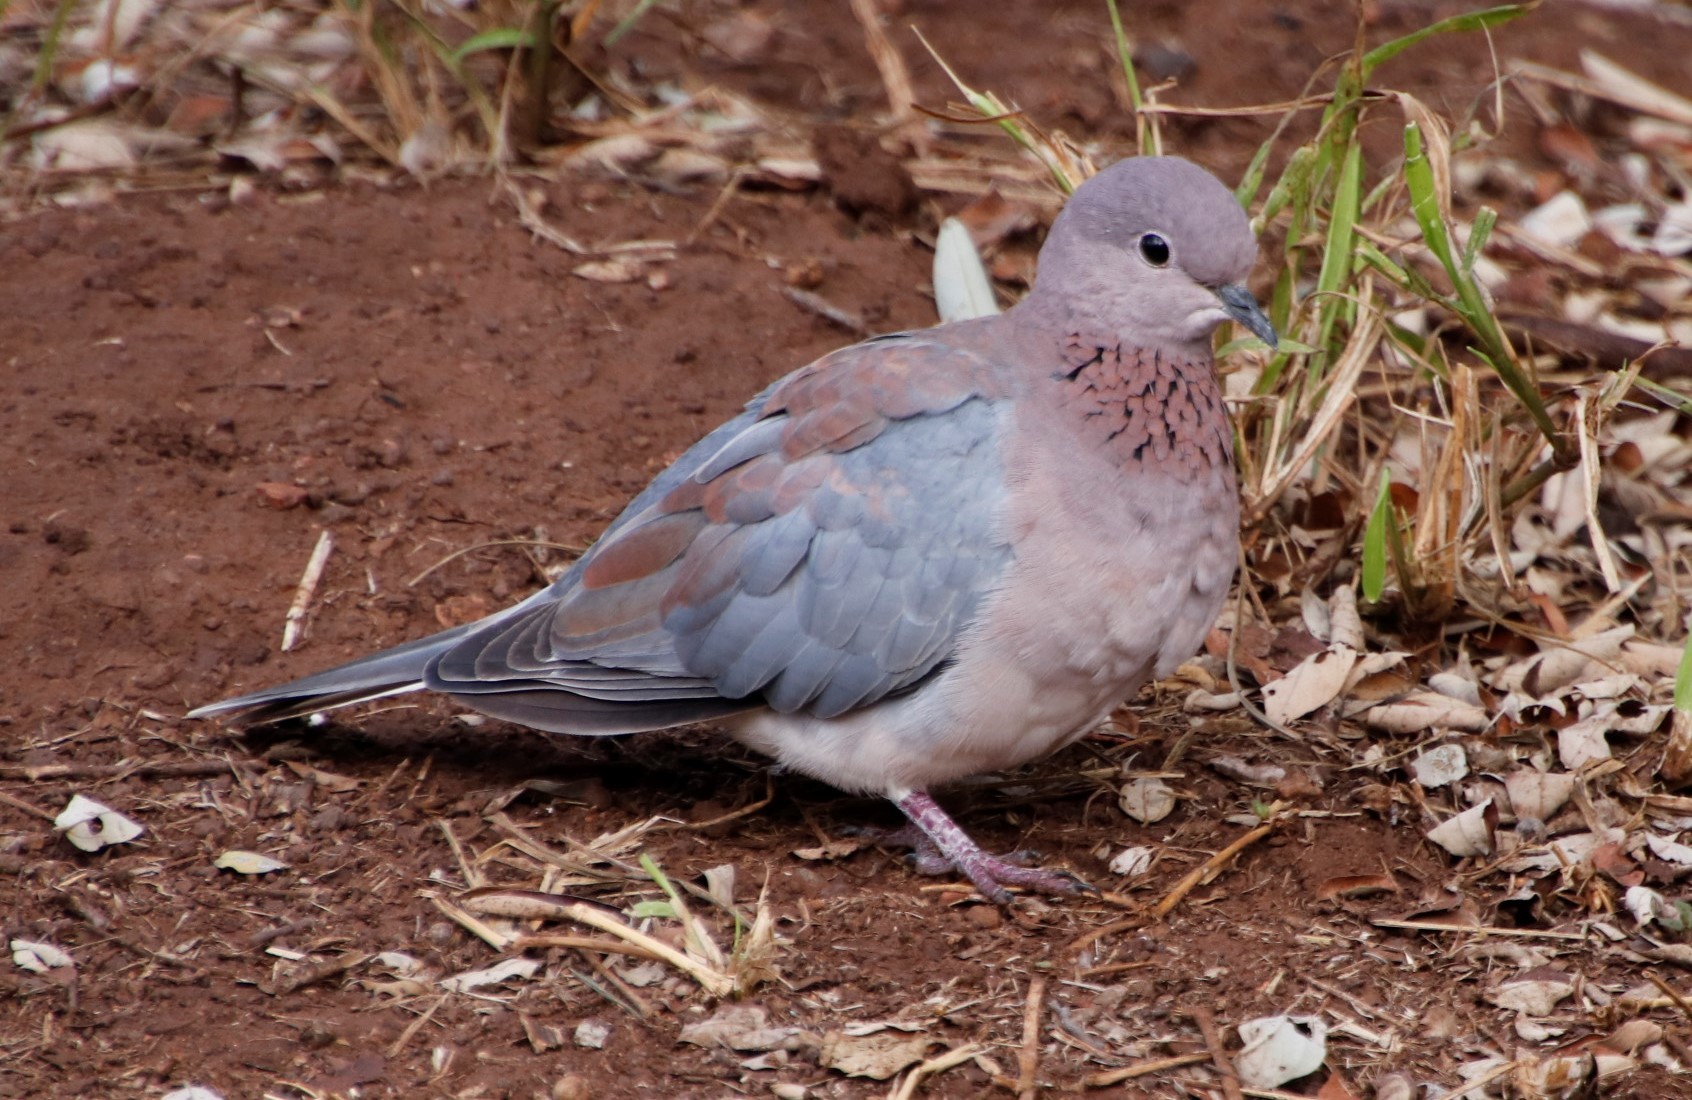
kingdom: Animalia
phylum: Chordata
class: Aves
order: Columbiformes
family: Columbidae
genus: Spilopelia
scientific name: Spilopelia senegalensis
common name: Laughing dove
